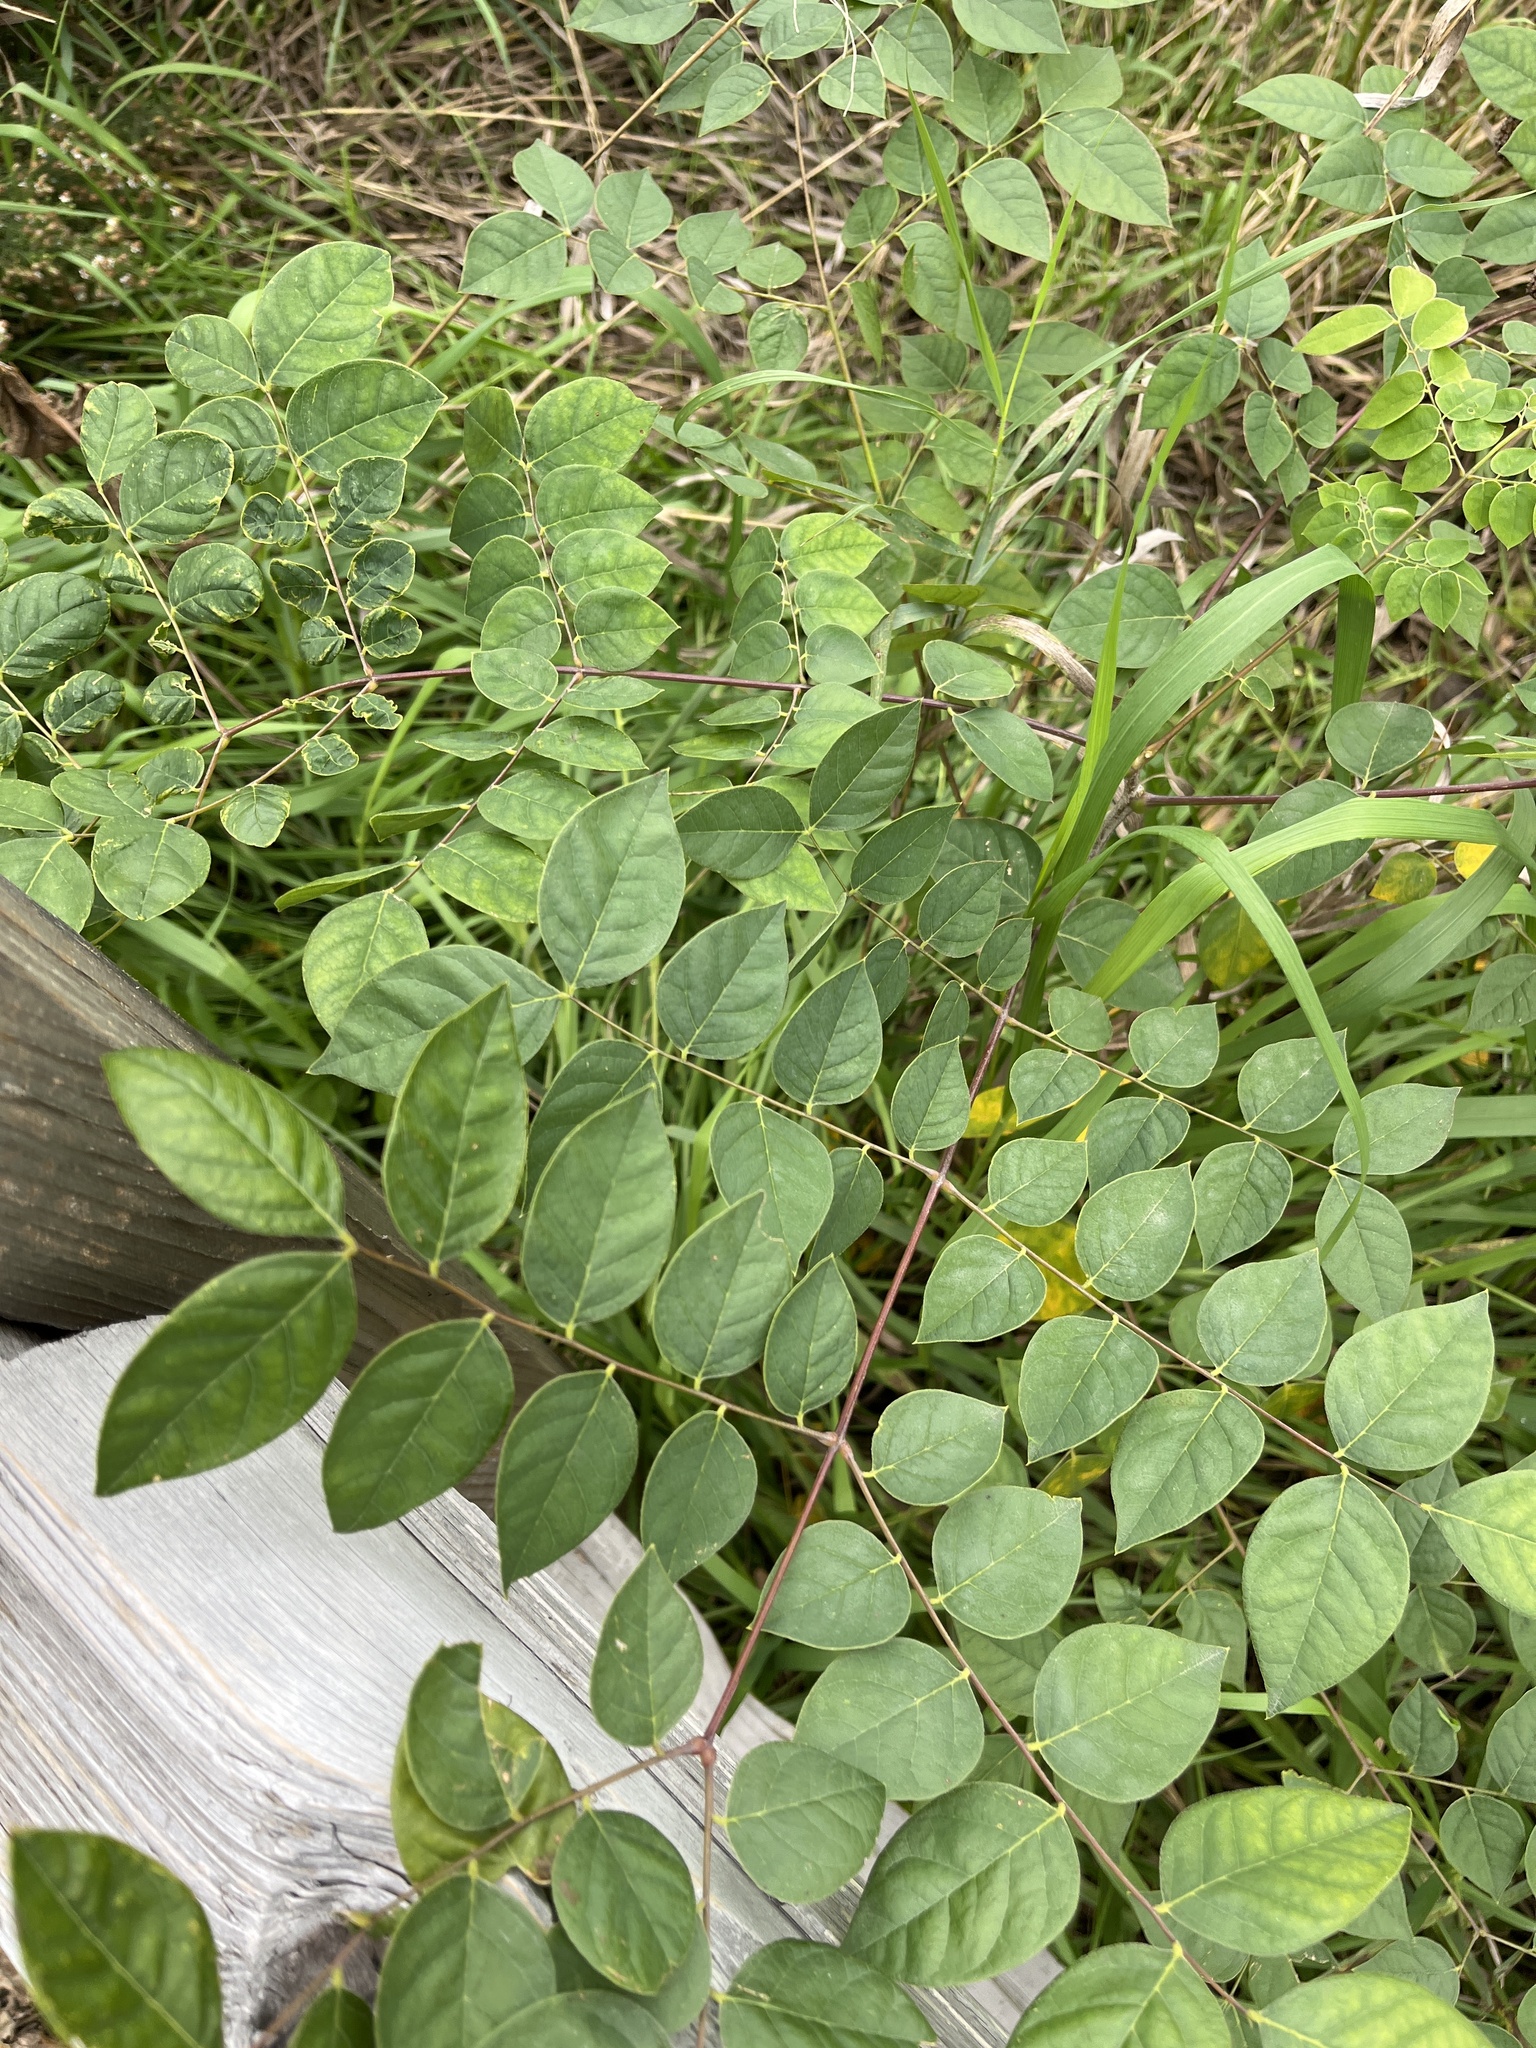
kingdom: Plantae
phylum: Tracheophyta
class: Magnoliopsida
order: Fabales
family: Fabaceae
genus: Gymnocladus
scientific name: Gymnocladus dioicus
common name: Kentucky coffee-tree
